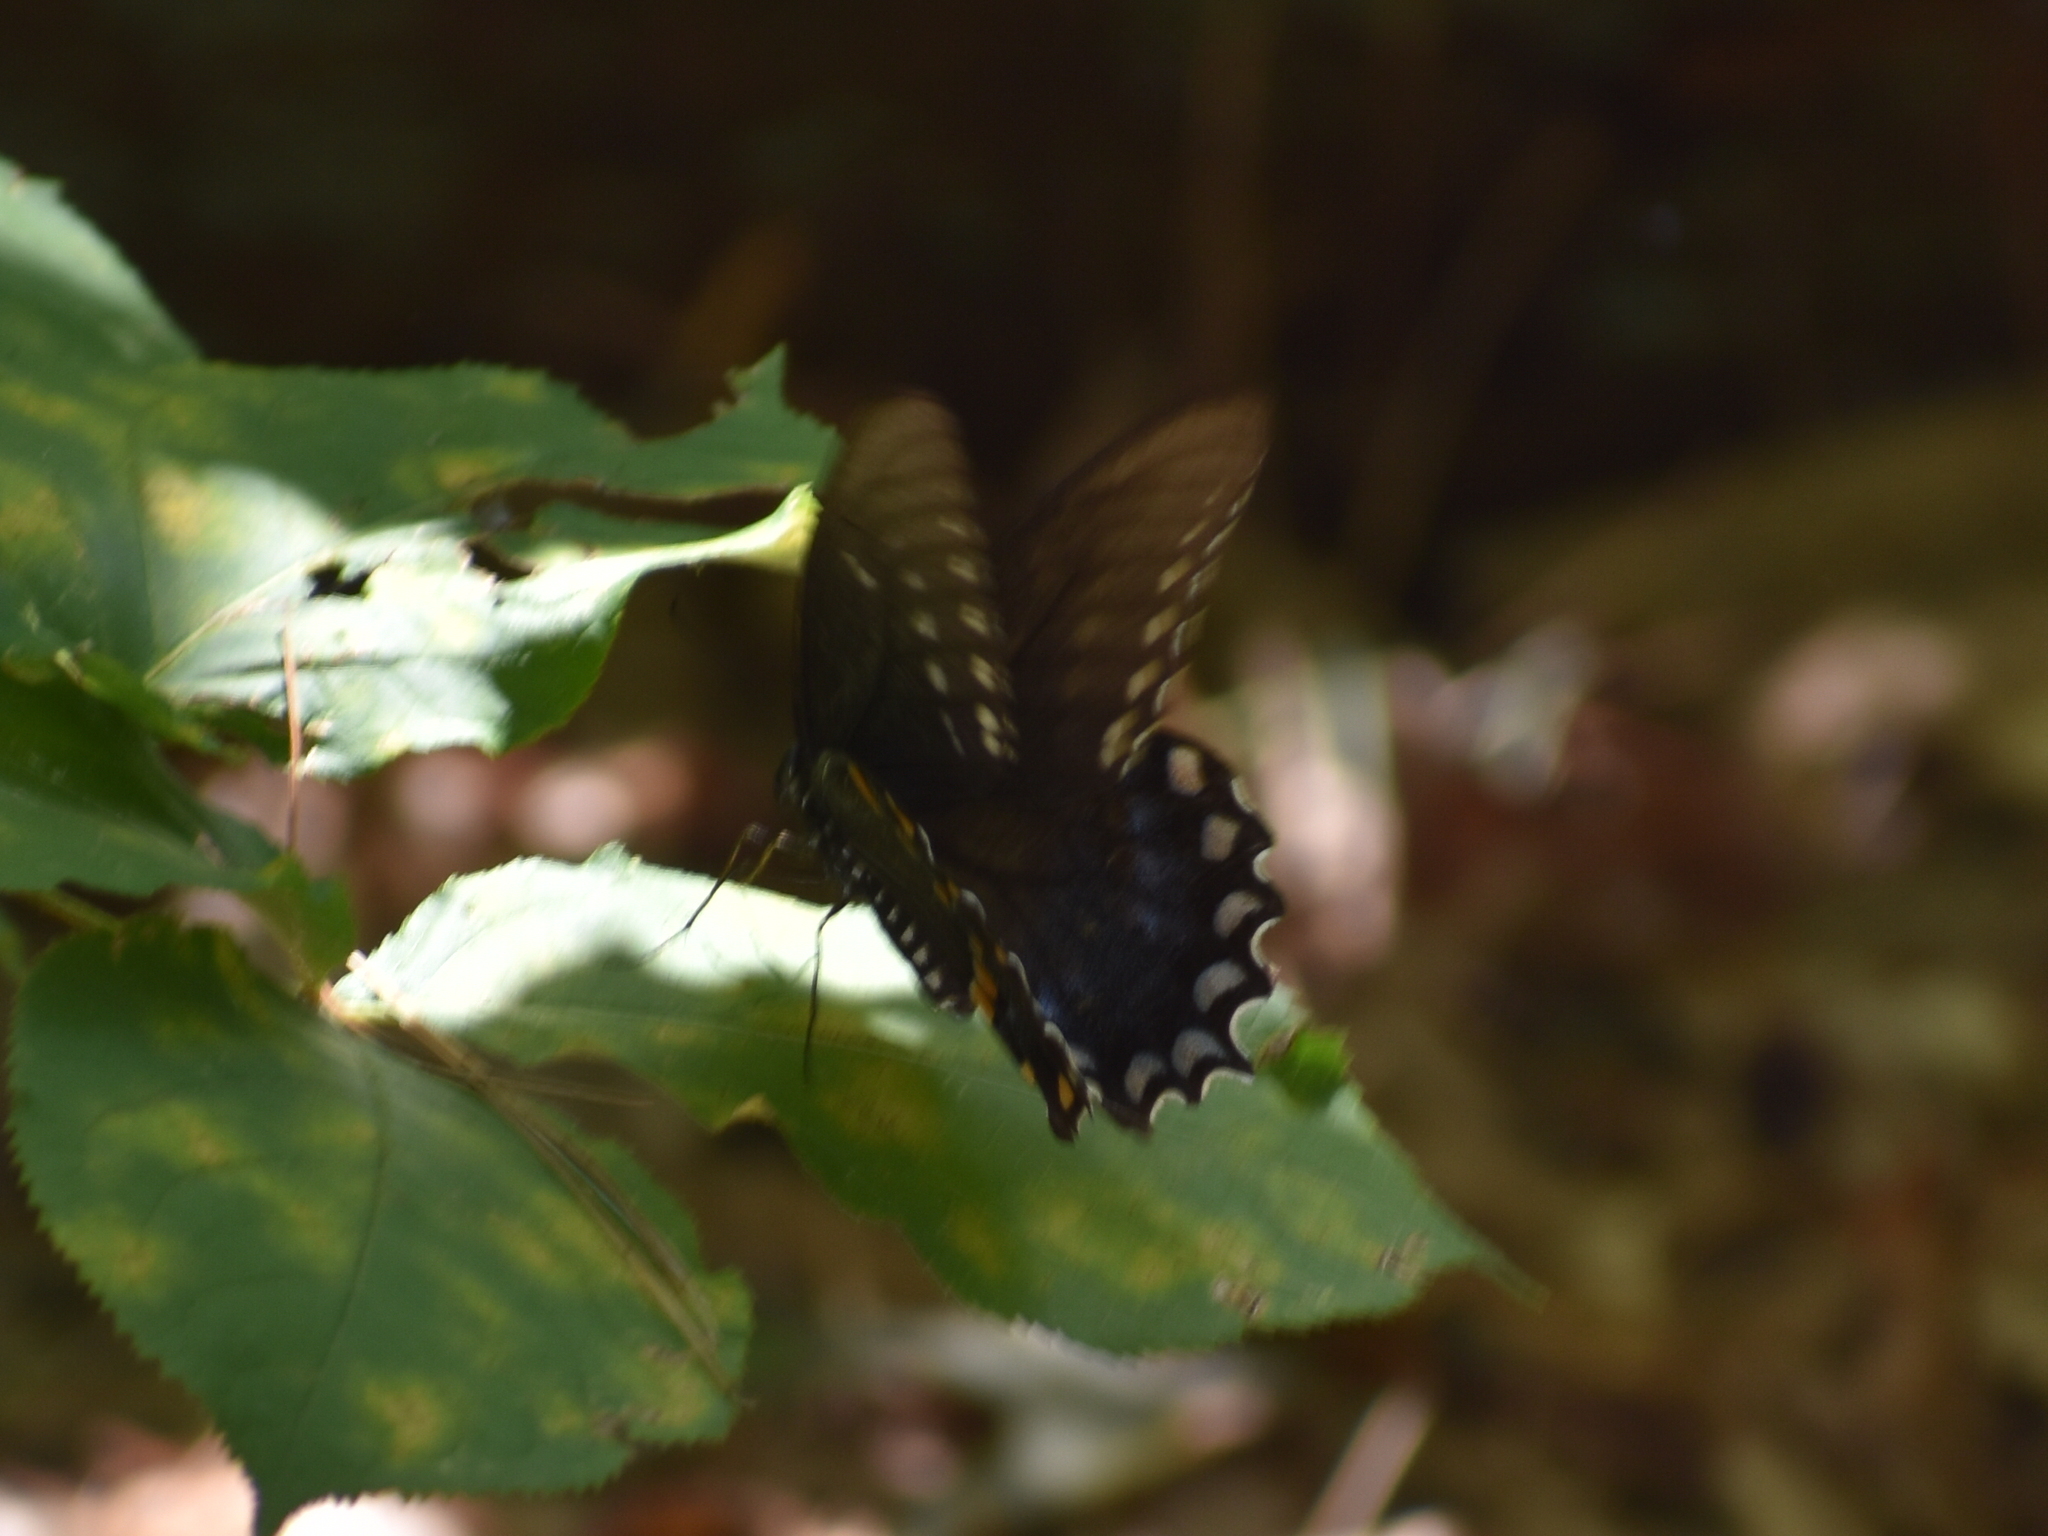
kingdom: Animalia
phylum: Arthropoda
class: Insecta
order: Lepidoptera
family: Papilionidae
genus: Papilio
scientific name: Papilio troilus
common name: Spicebush swallowtail
